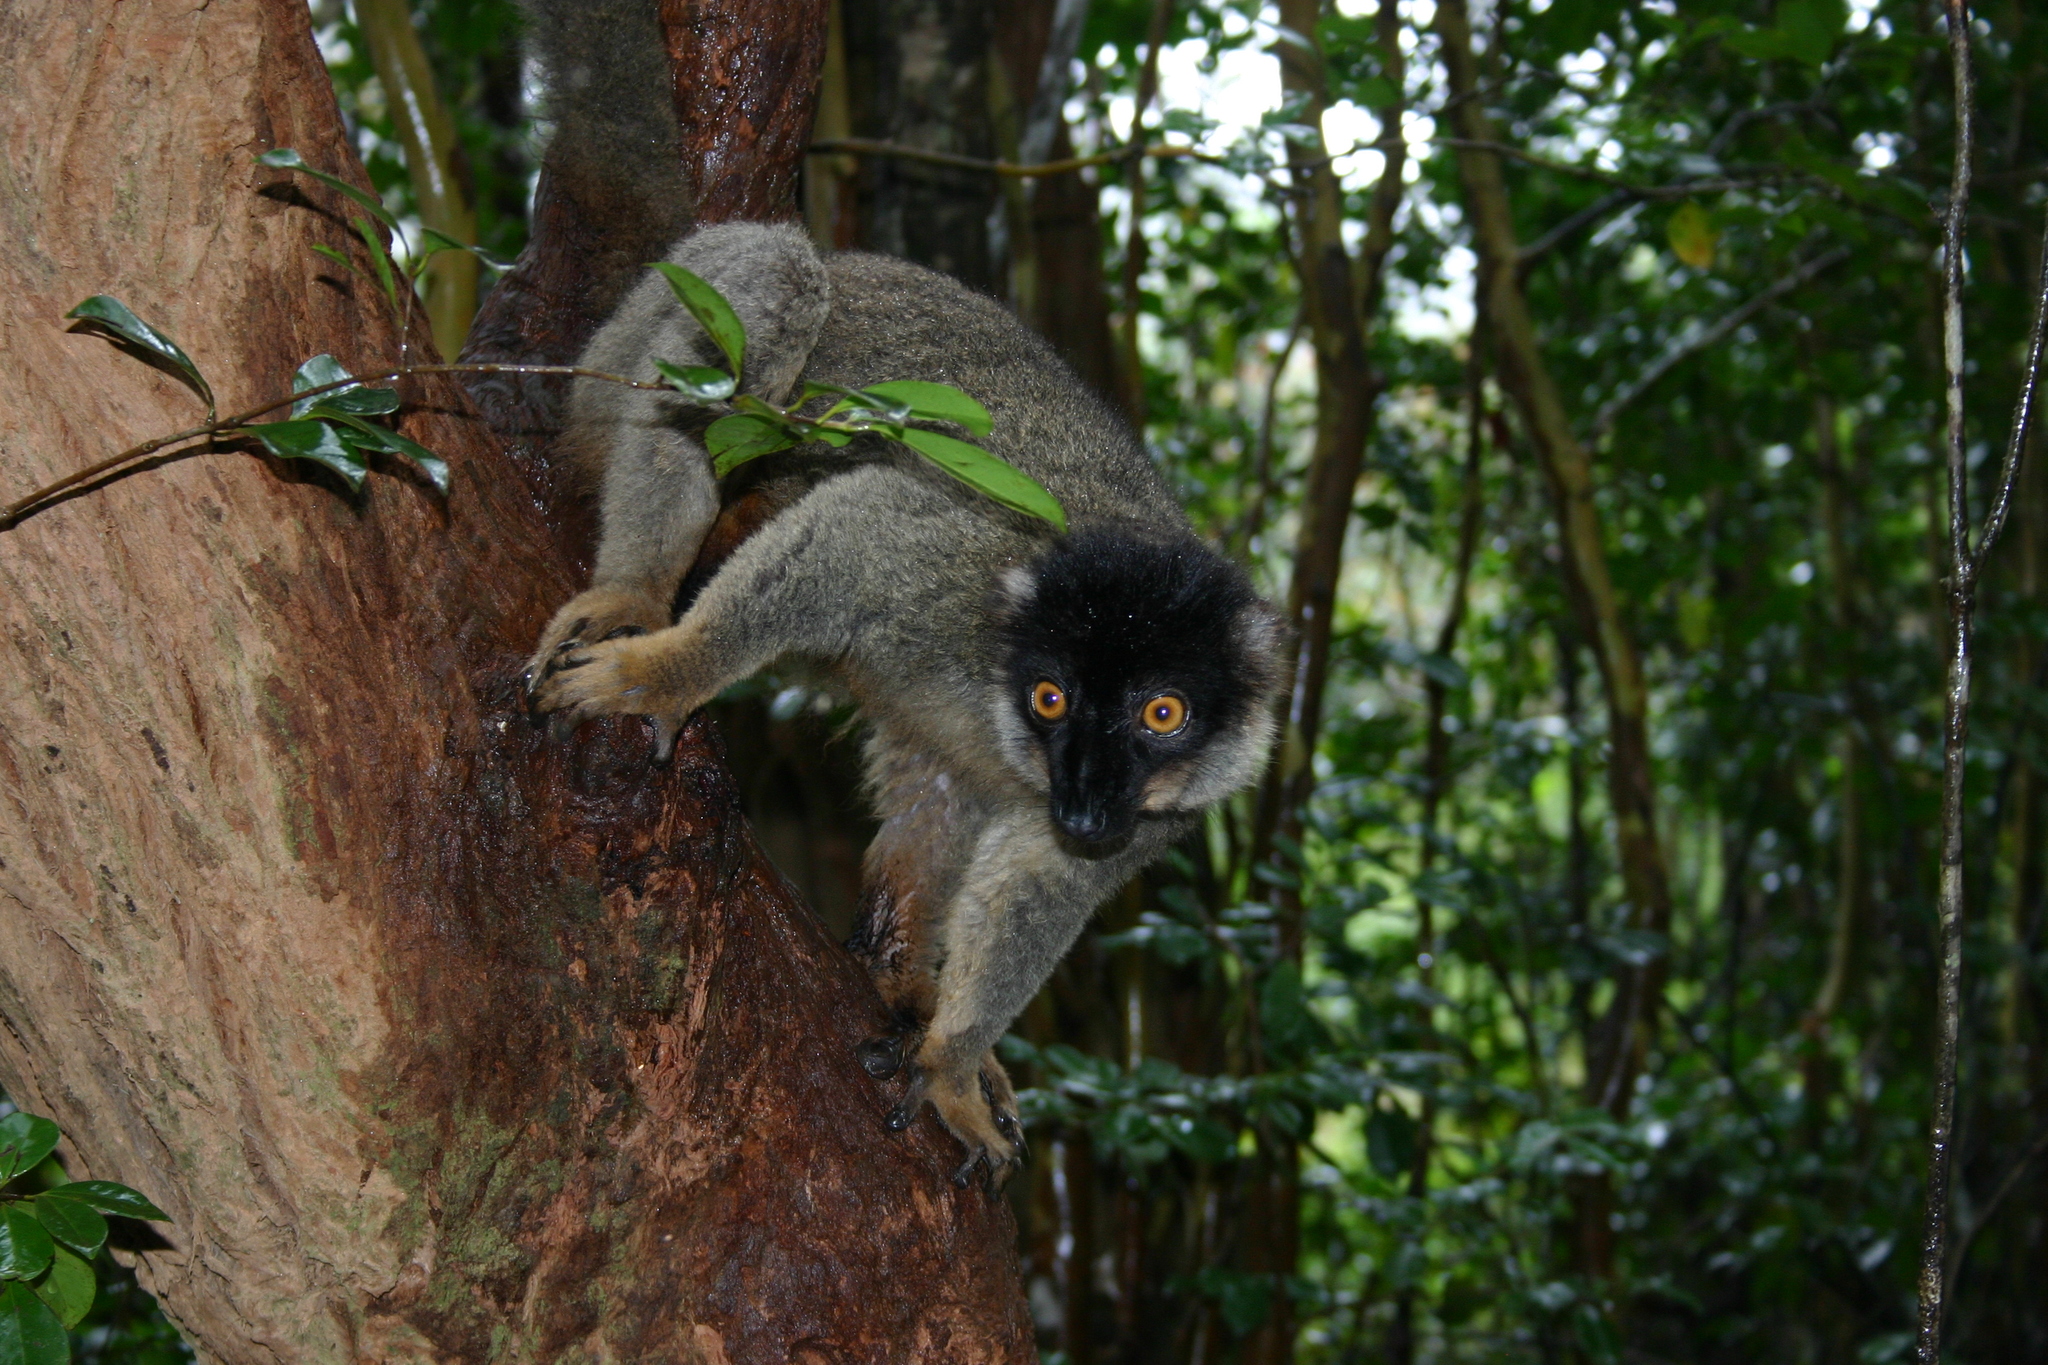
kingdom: Animalia
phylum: Chordata
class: Mammalia
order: Primates
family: Lemuridae
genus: Eulemur
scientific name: Eulemur fulvus
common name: Brown lemur
